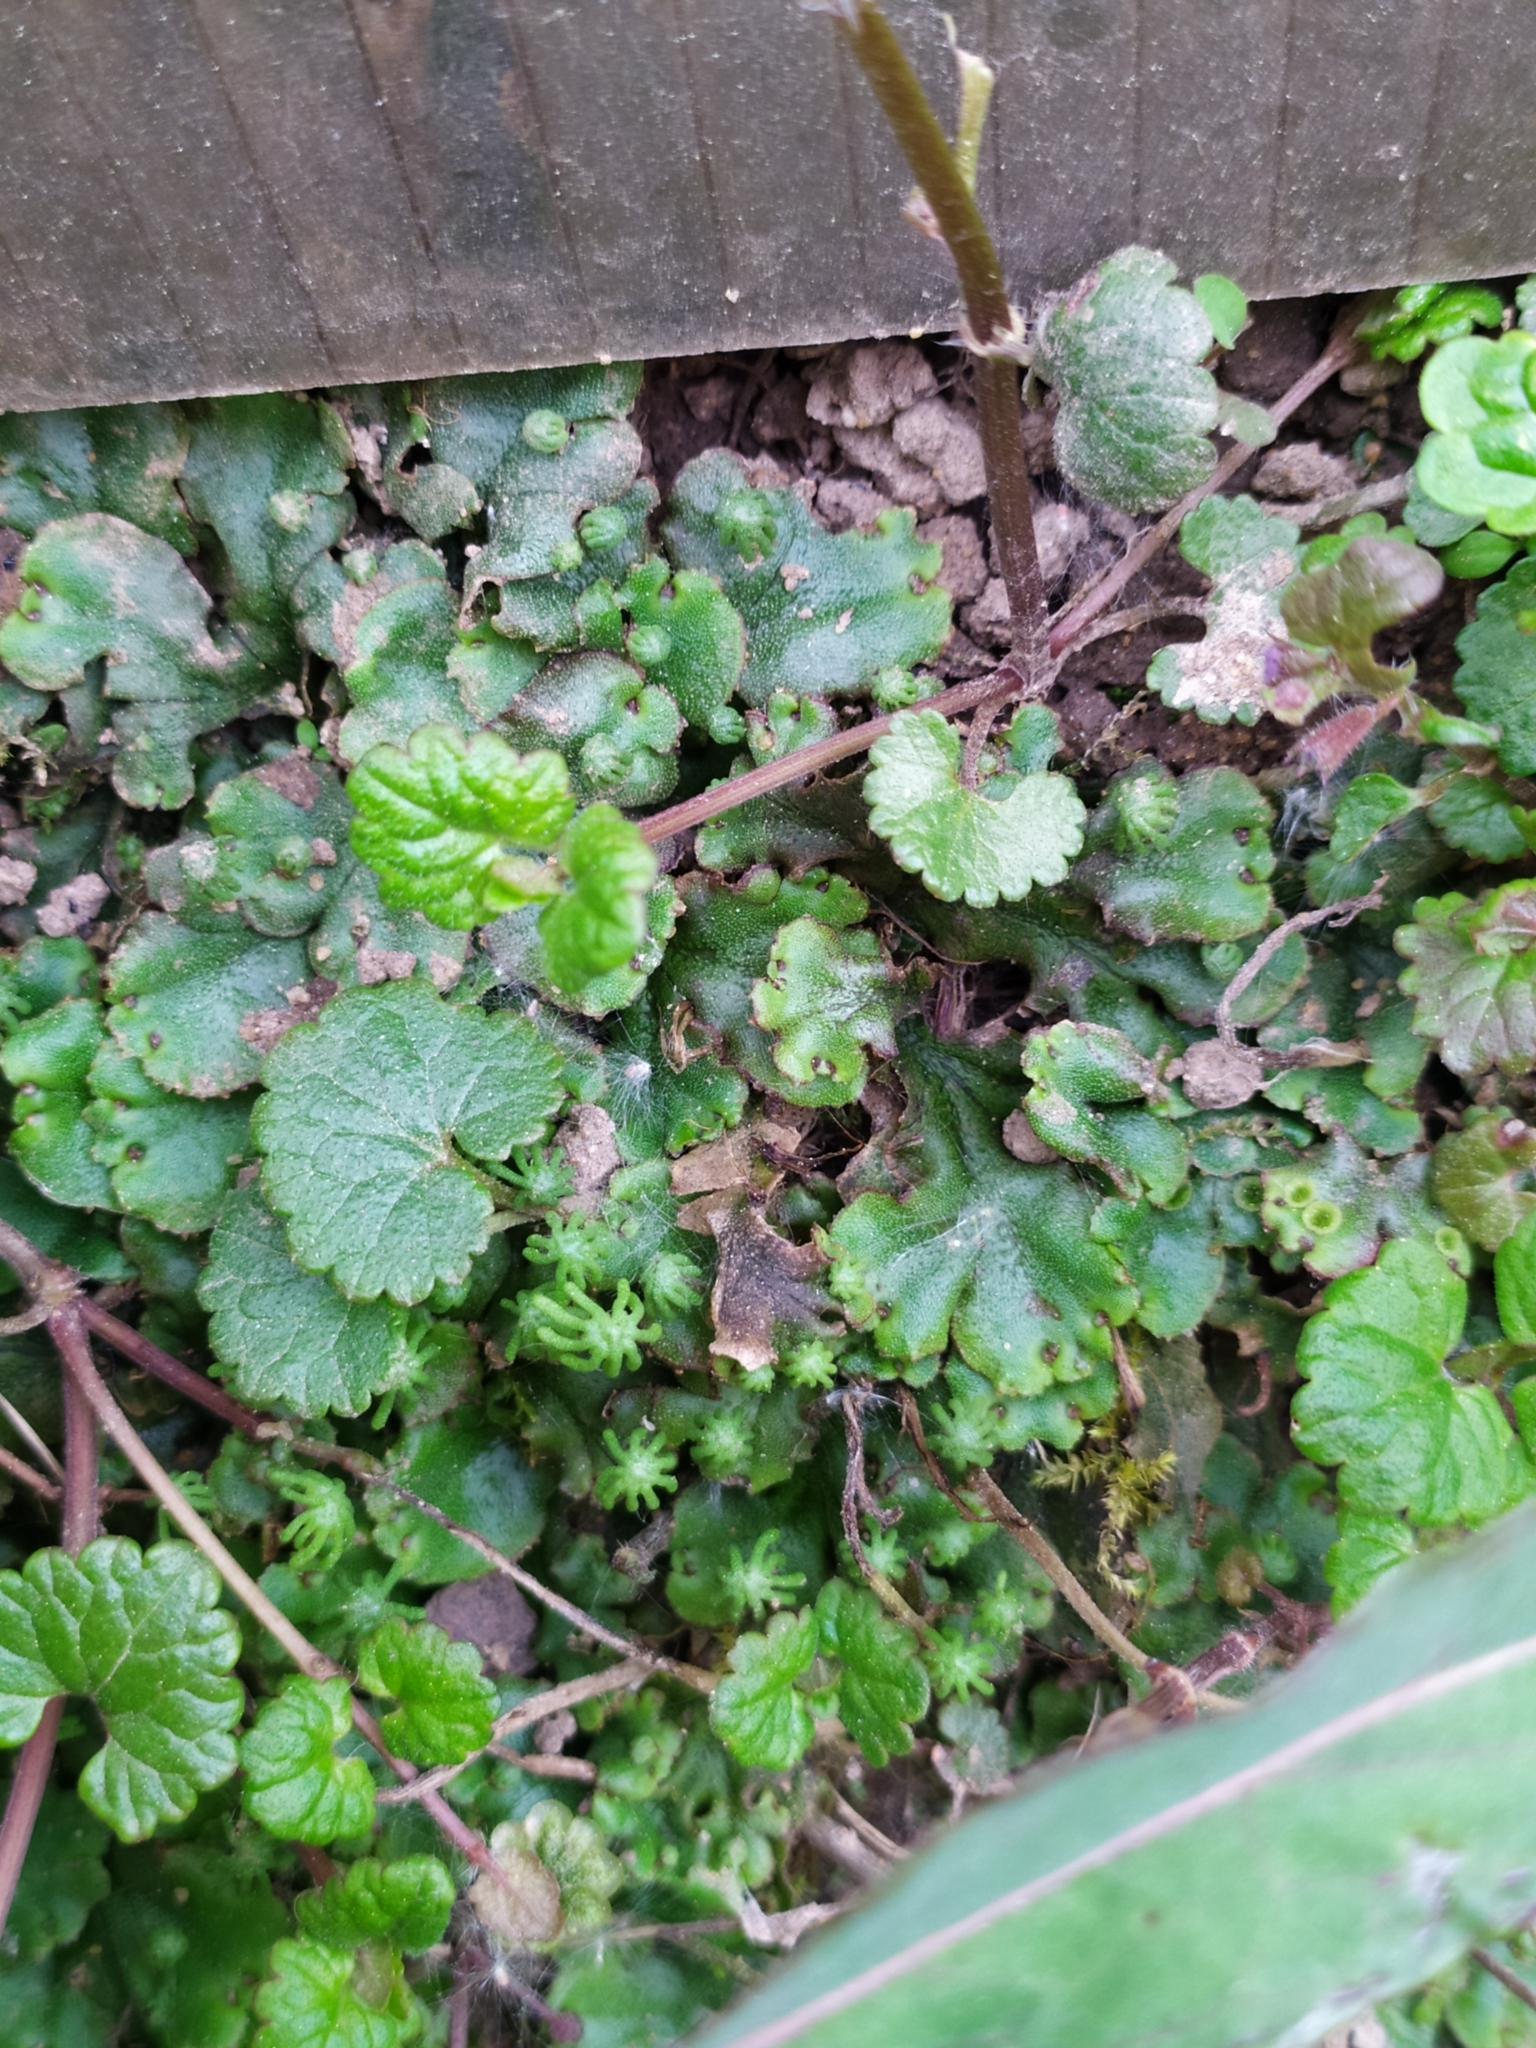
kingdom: Plantae
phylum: Marchantiophyta
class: Marchantiopsida
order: Marchantiales
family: Marchantiaceae
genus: Marchantia
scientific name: Marchantia polymorpha
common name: Common liverwort
